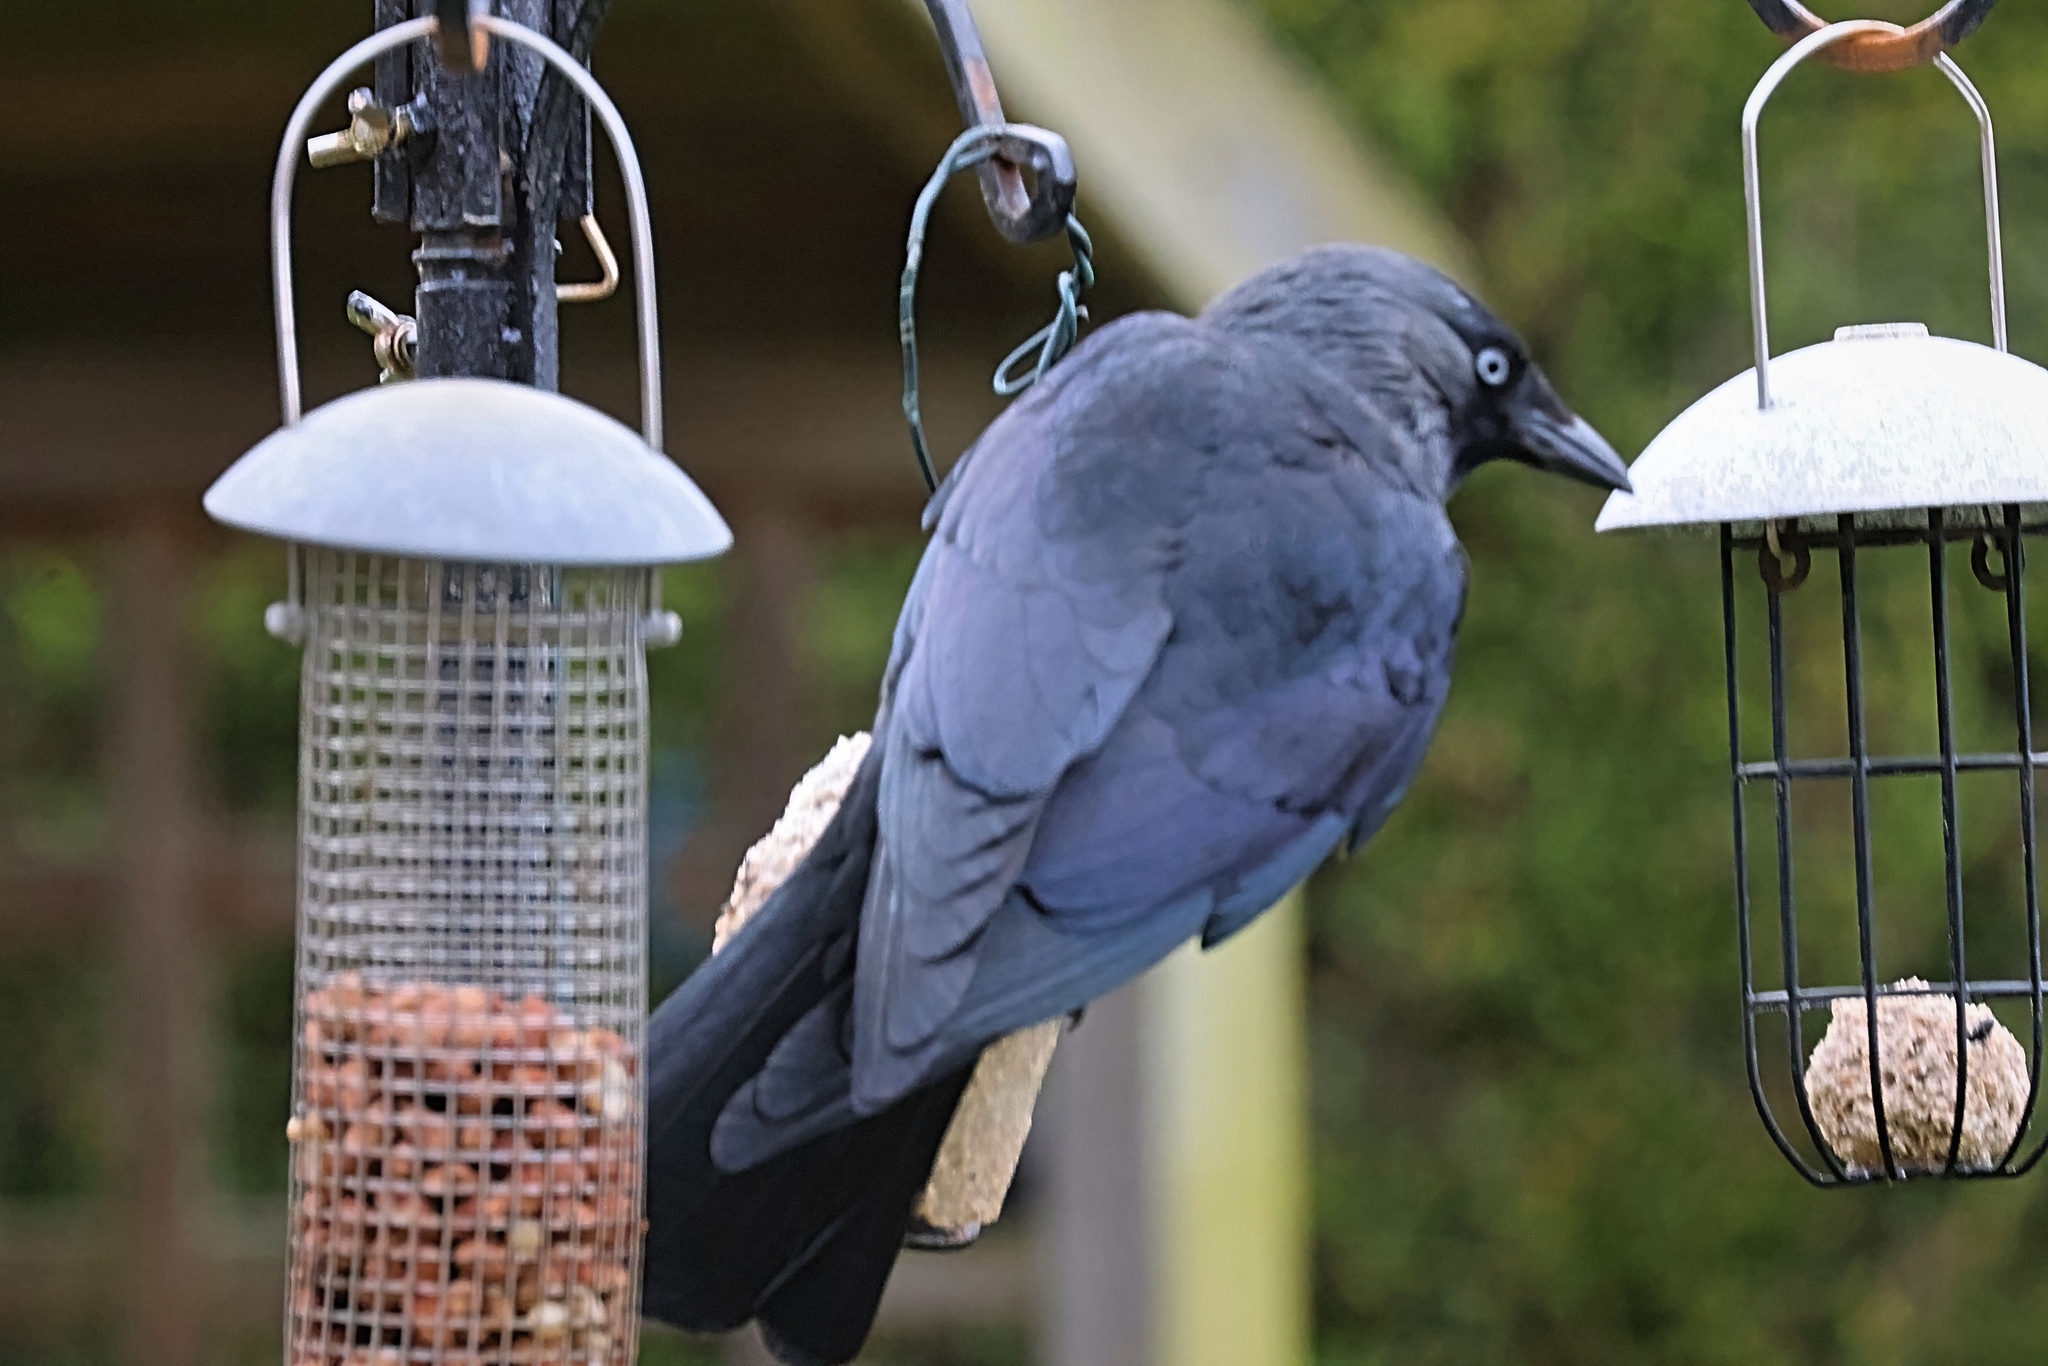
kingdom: Animalia
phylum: Chordata
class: Aves
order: Passeriformes
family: Corvidae
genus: Coloeus
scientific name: Coloeus monedula
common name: Western jackdaw
